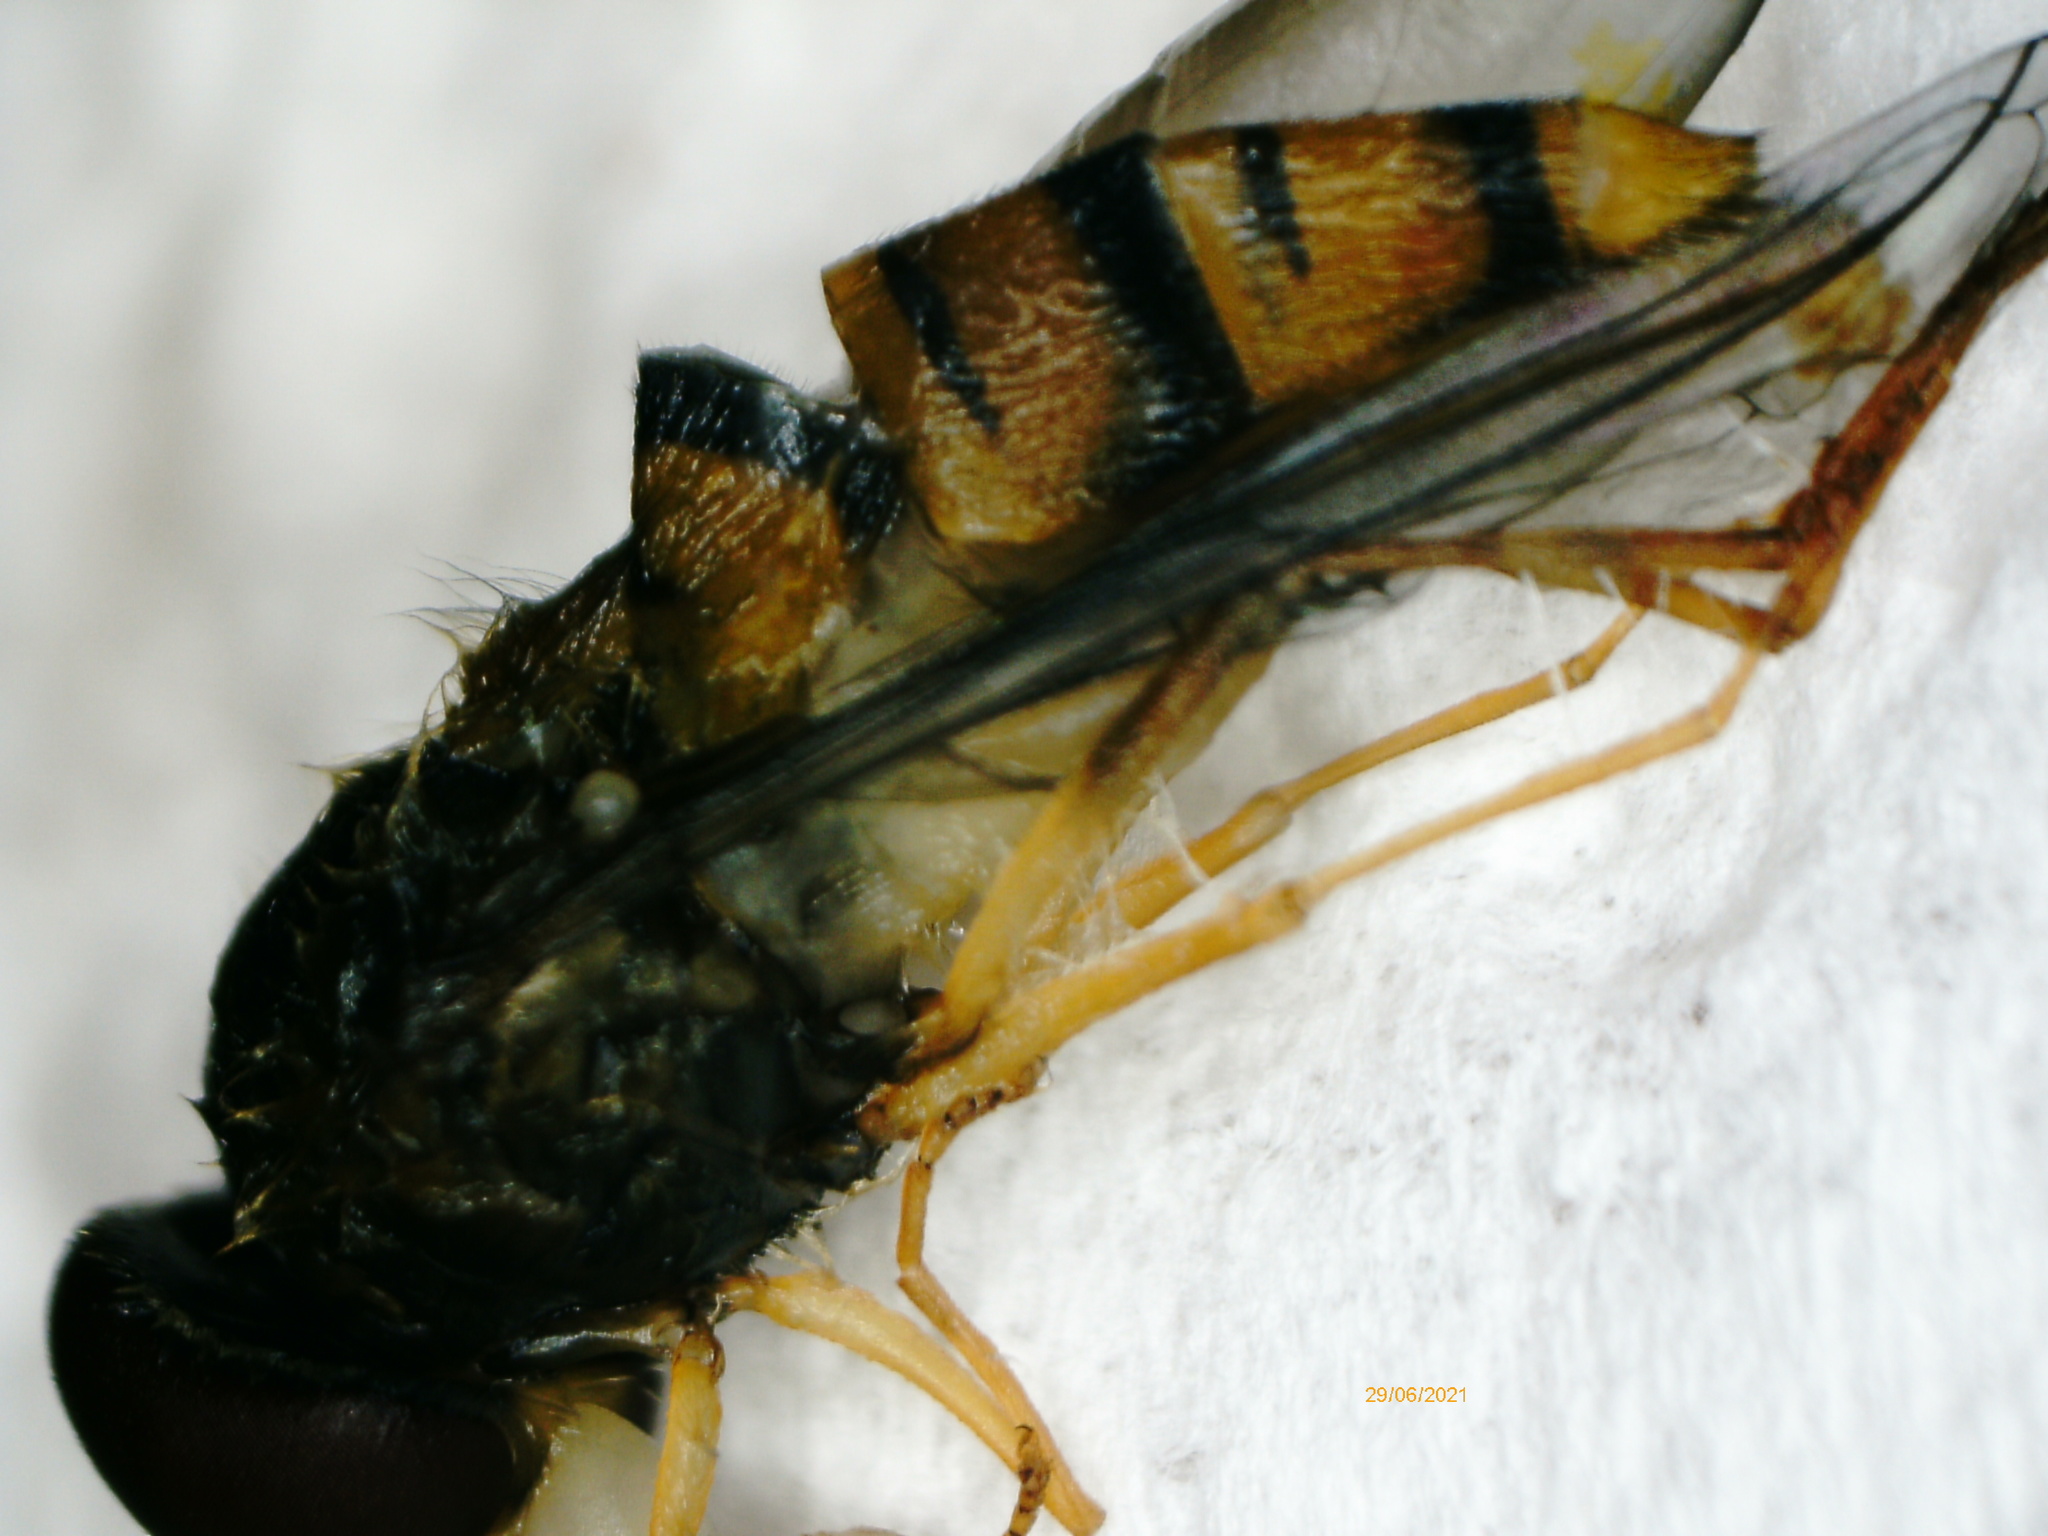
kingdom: Animalia
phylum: Arthropoda
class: Insecta
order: Diptera
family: Syrphidae
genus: Episyrphus
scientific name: Episyrphus balteatus
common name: Marmalade hoverfly
